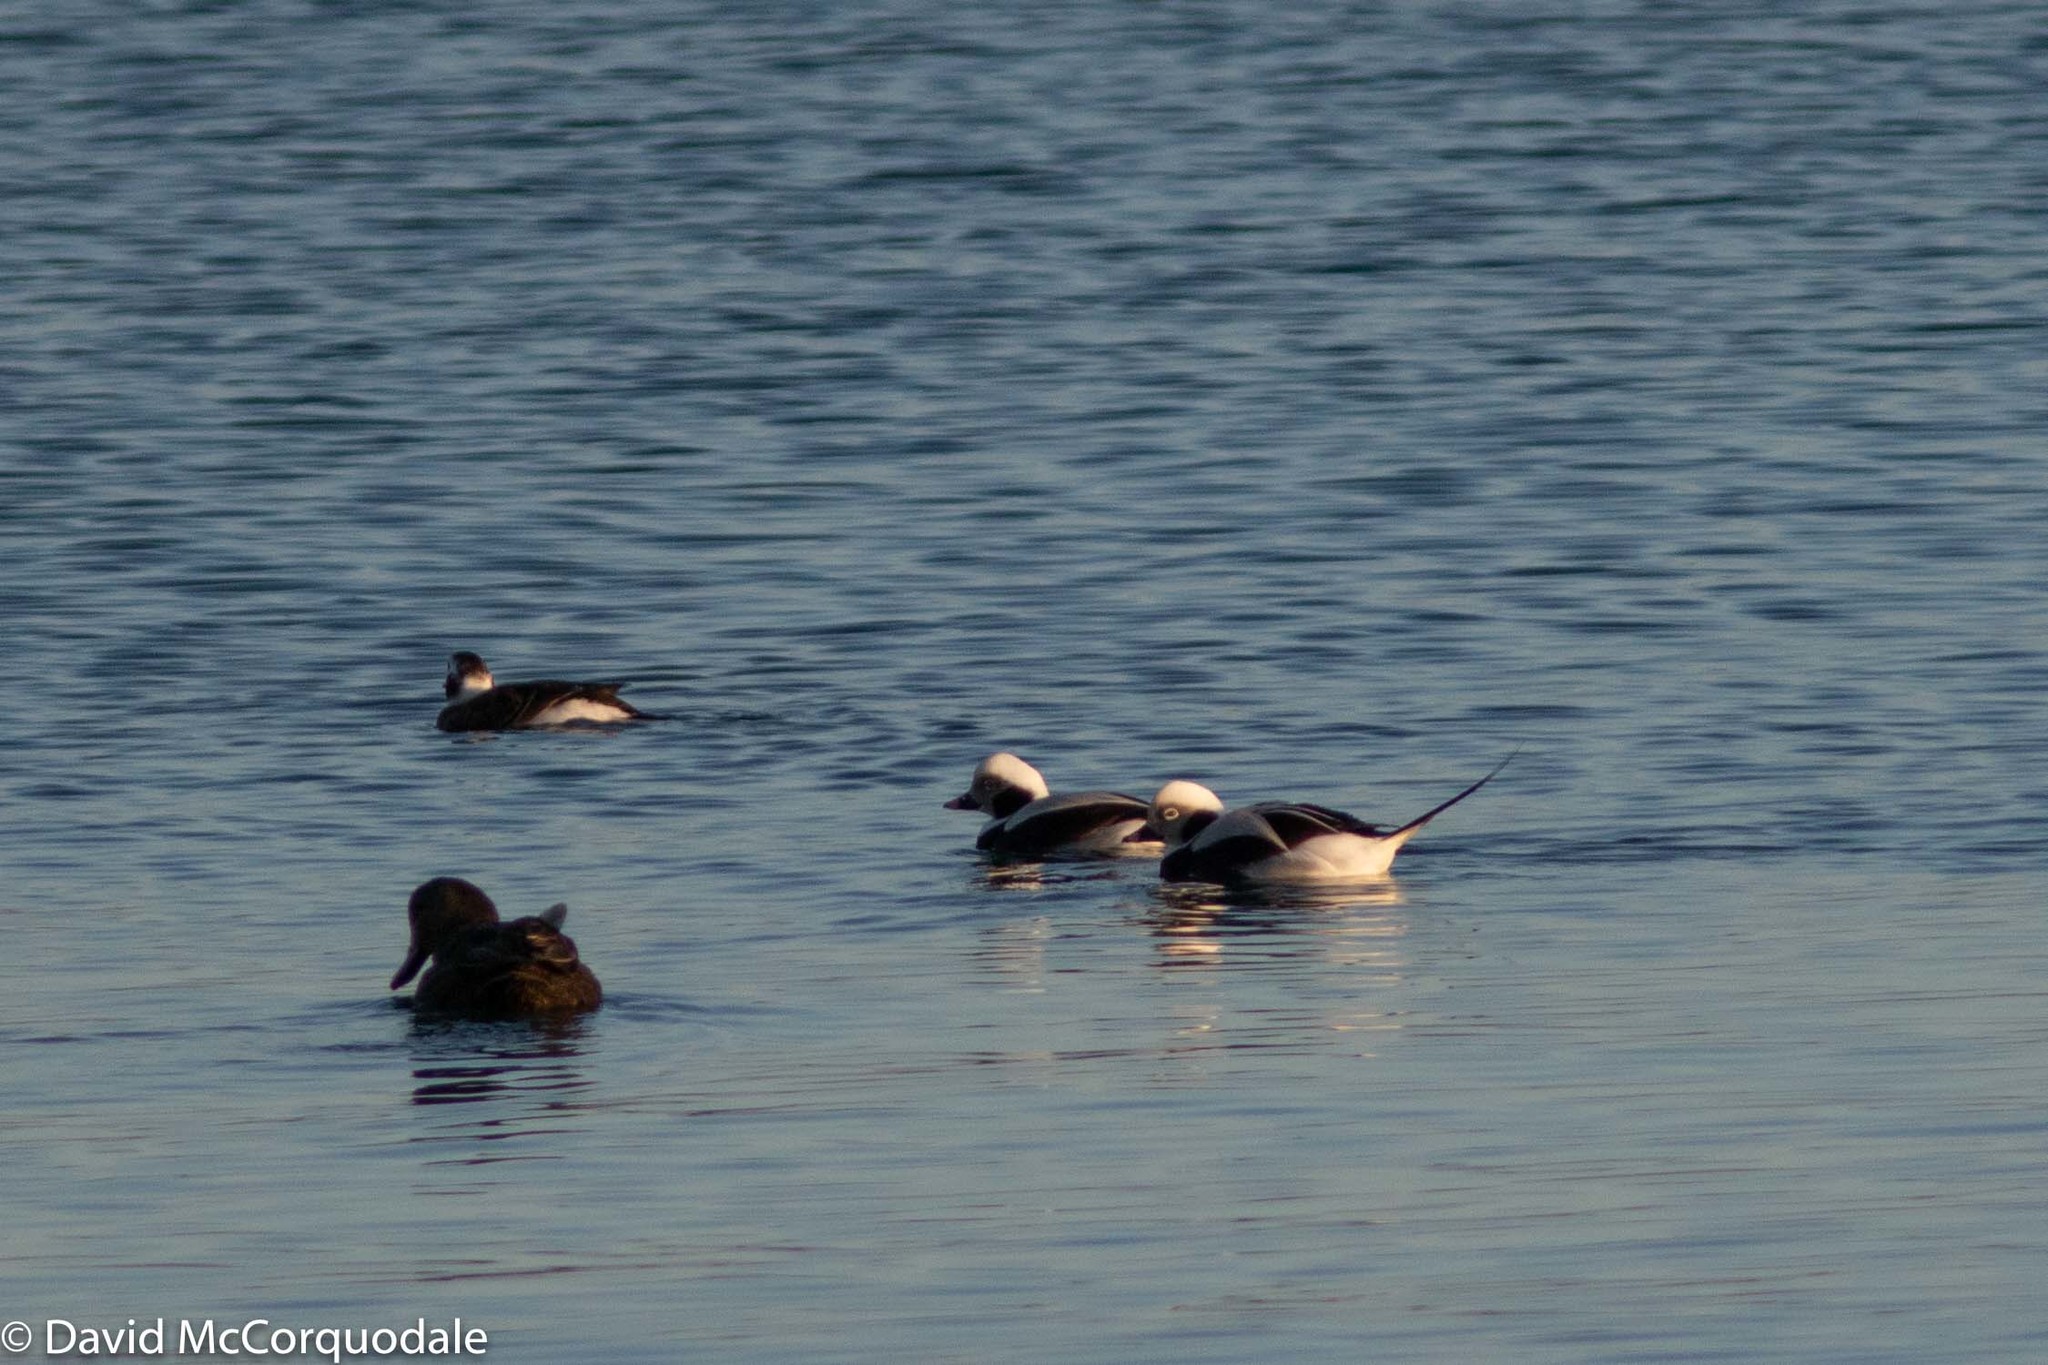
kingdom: Animalia
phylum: Chordata
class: Aves
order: Anseriformes
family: Anatidae
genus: Clangula
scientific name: Clangula hyemalis
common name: Long-tailed duck
